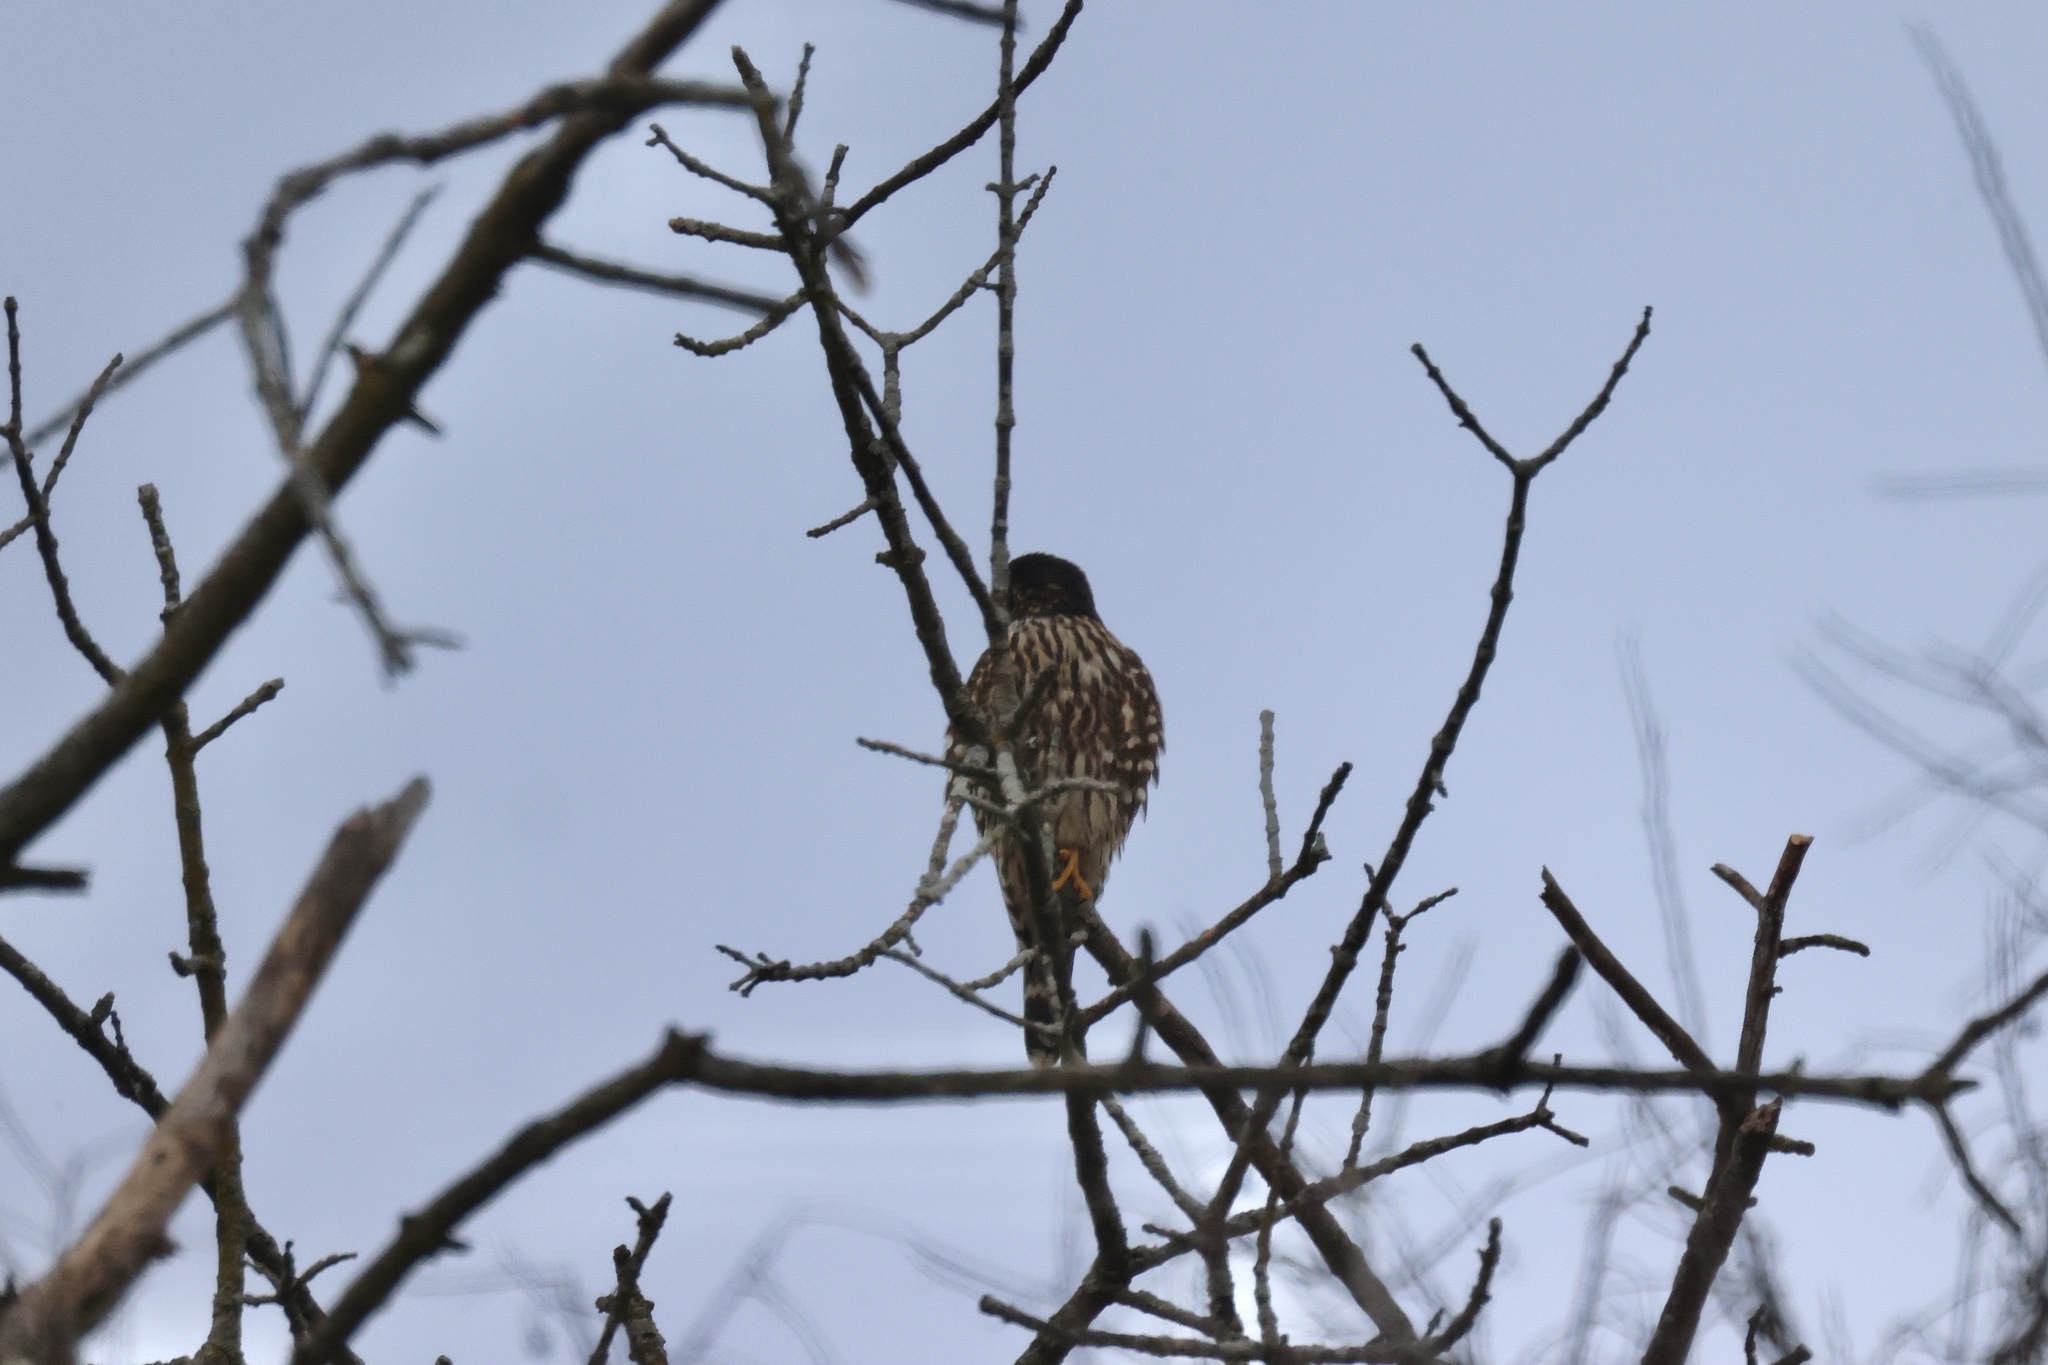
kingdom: Animalia
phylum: Chordata
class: Aves
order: Falconiformes
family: Falconidae
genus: Falco
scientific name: Falco columbarius
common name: Merlin
